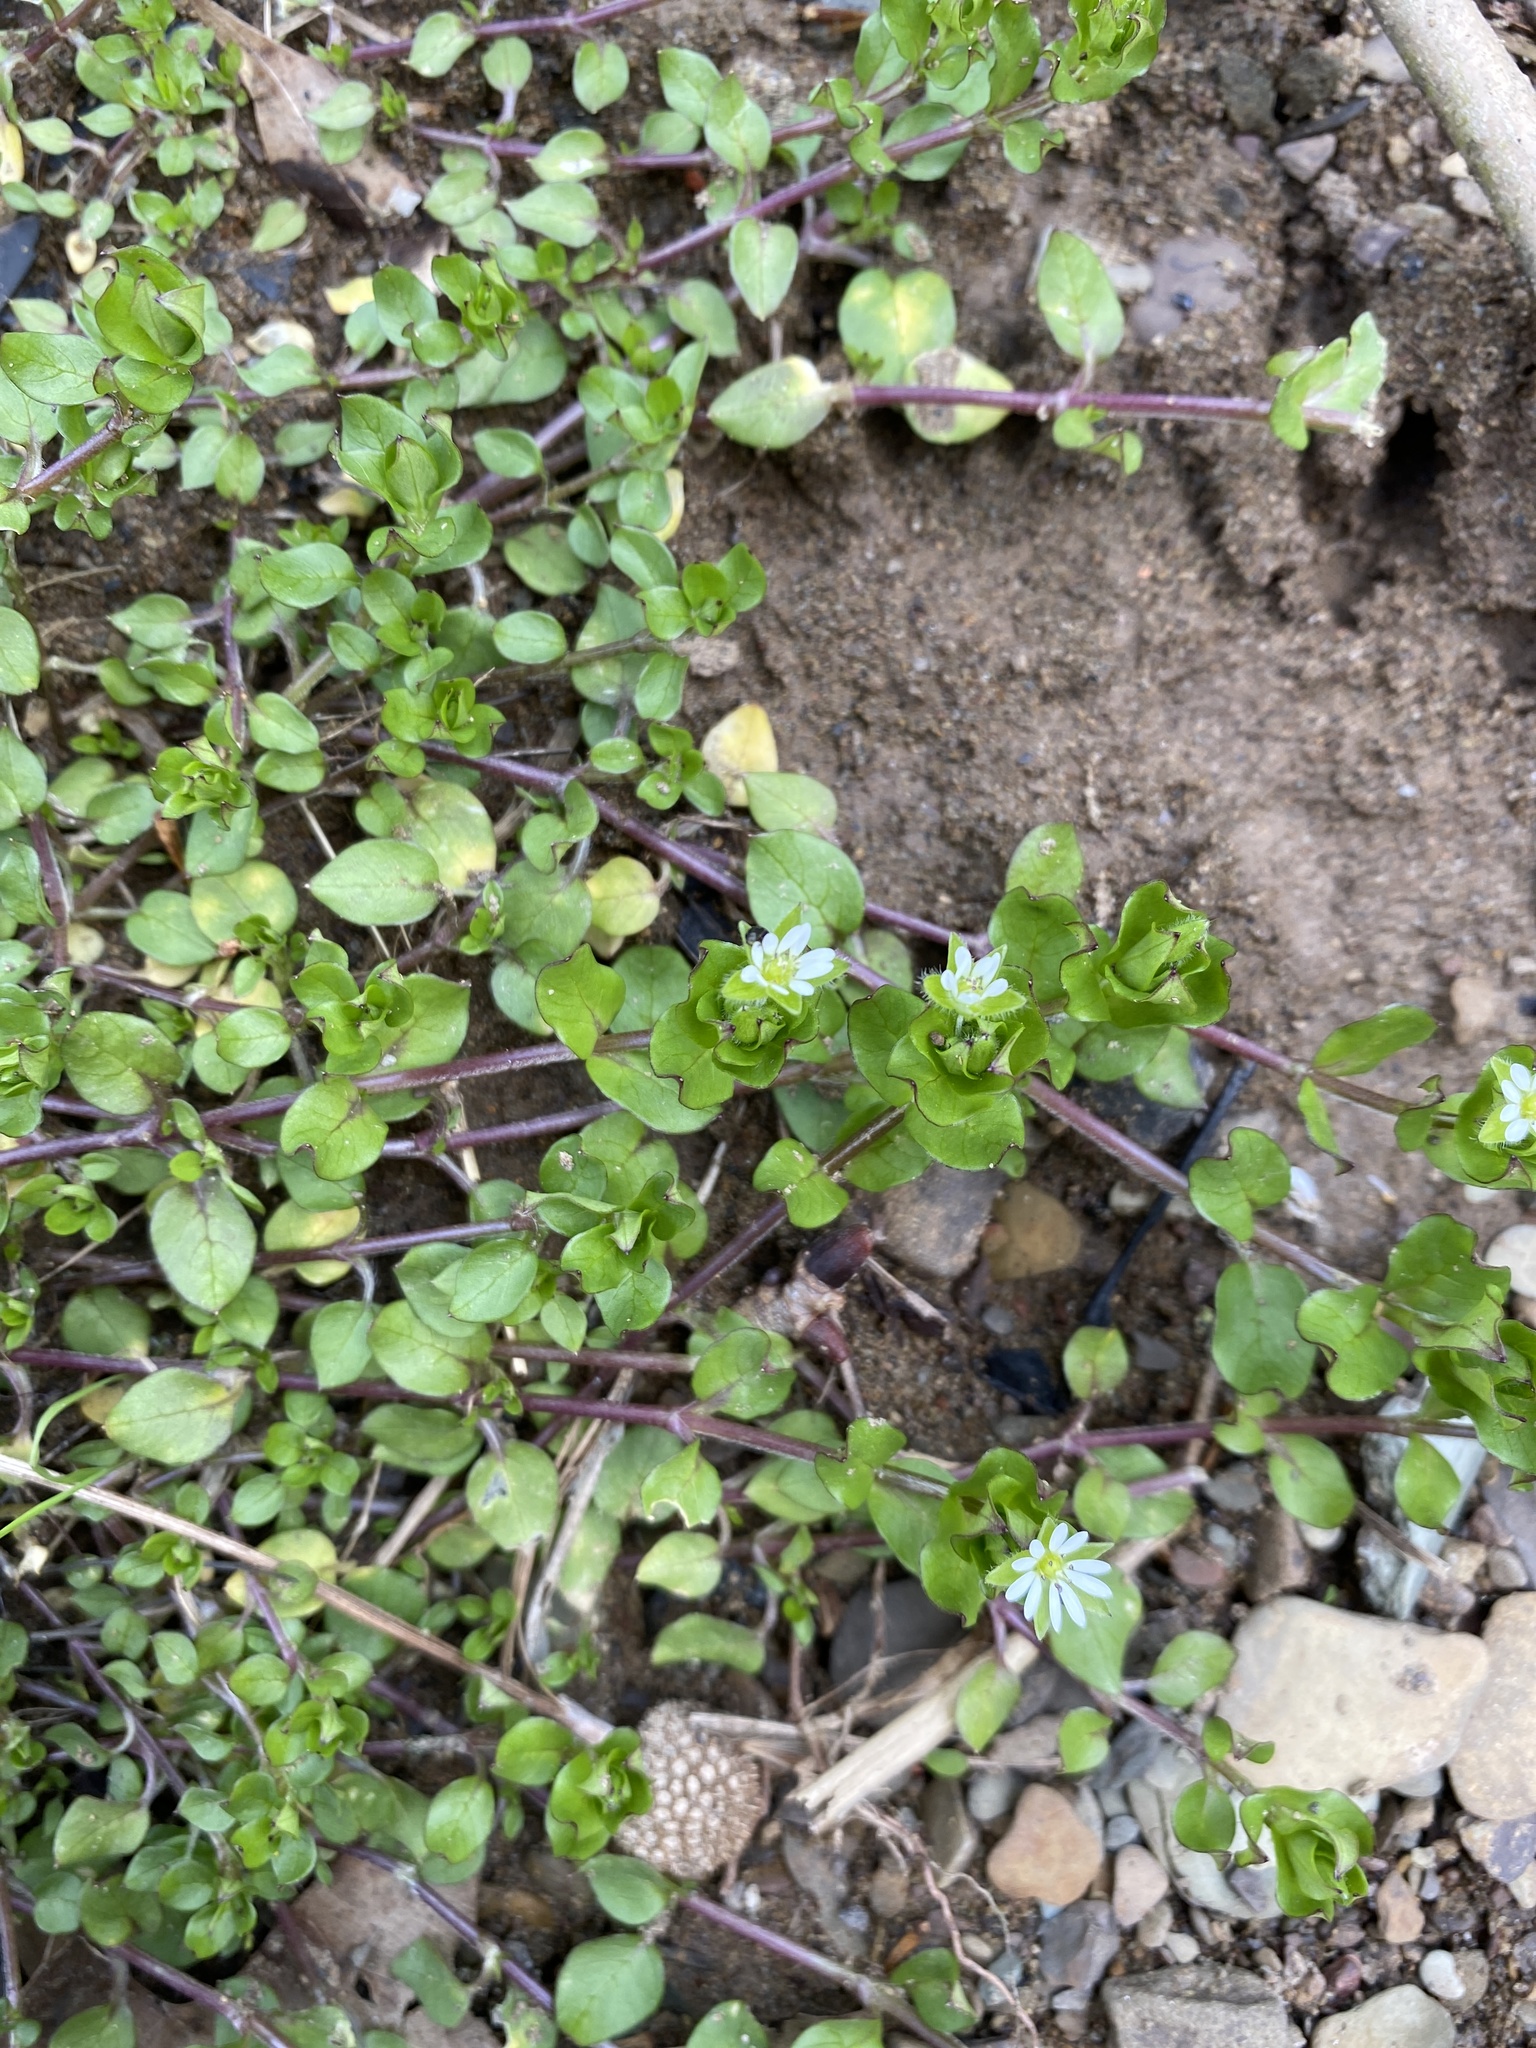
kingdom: Plantae
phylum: Tracheophyta
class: Magnoliopsida
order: Caryophyllales
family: Caryophyllaceae
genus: Stellaria
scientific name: Stellaria media
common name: Common chickweed
